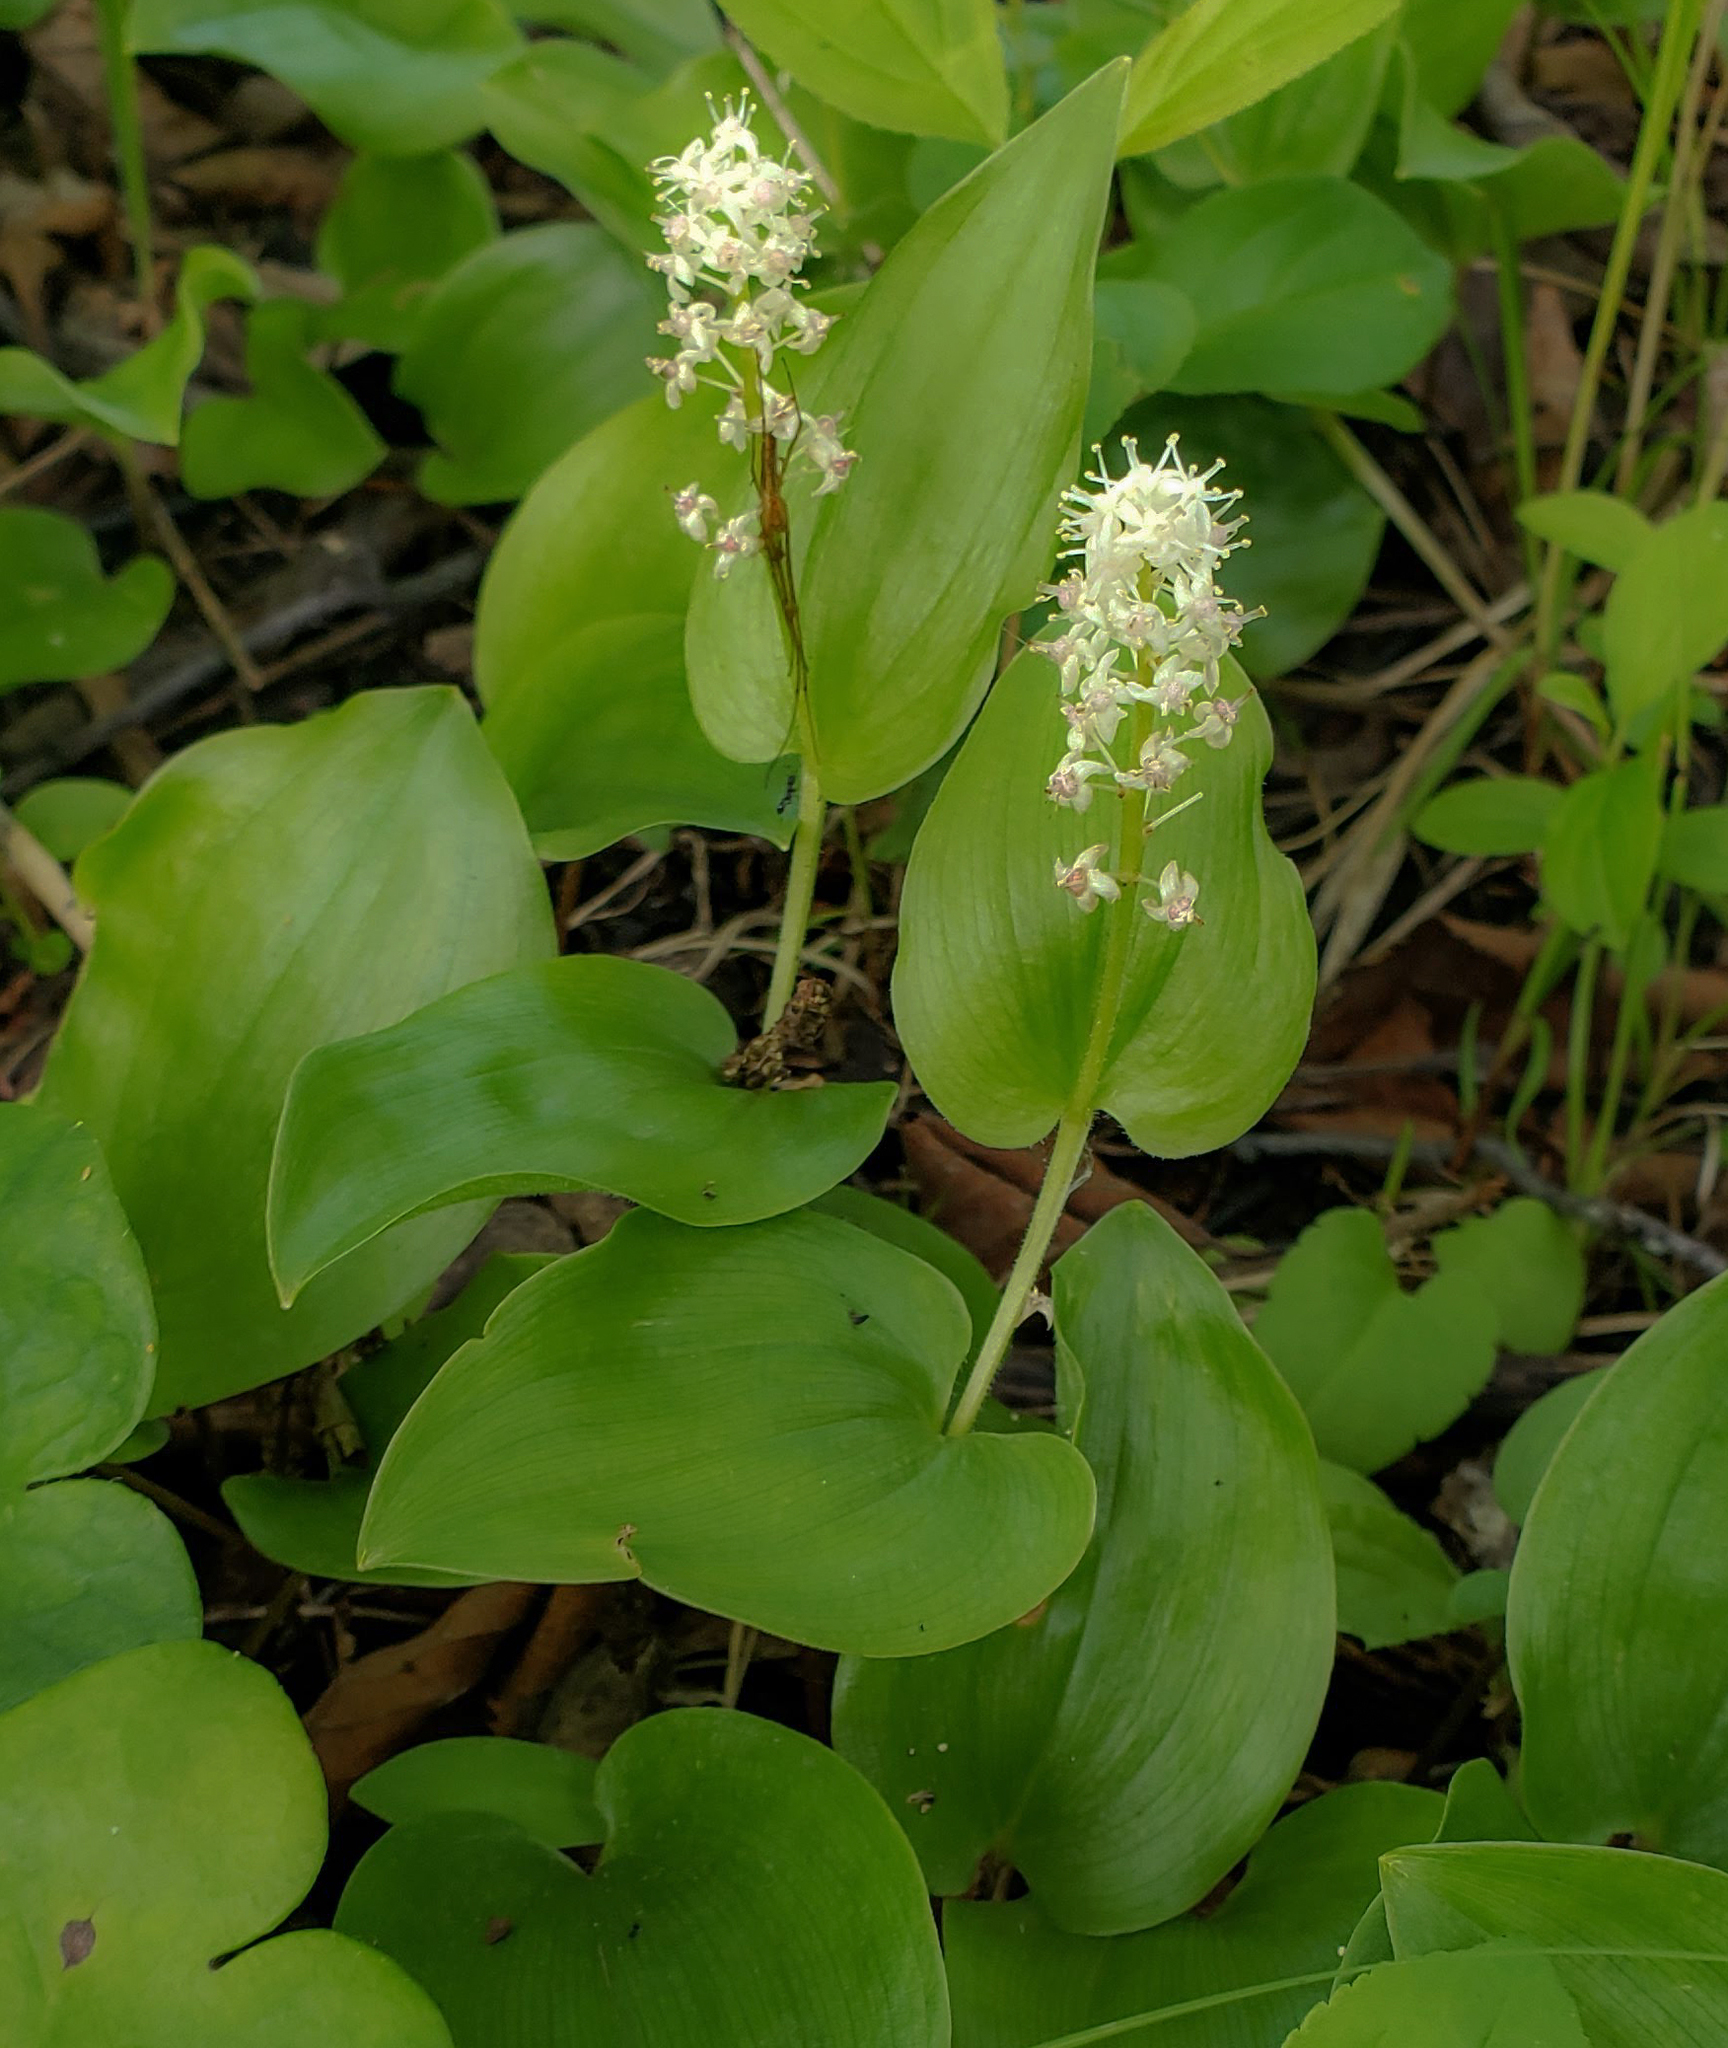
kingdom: Plantae
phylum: Tracheophyta
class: Liliopsida
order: Asparagales
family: Asparagaceae
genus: Maianthemum
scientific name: Maianthemum canadense
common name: False lily-of-the-valley
